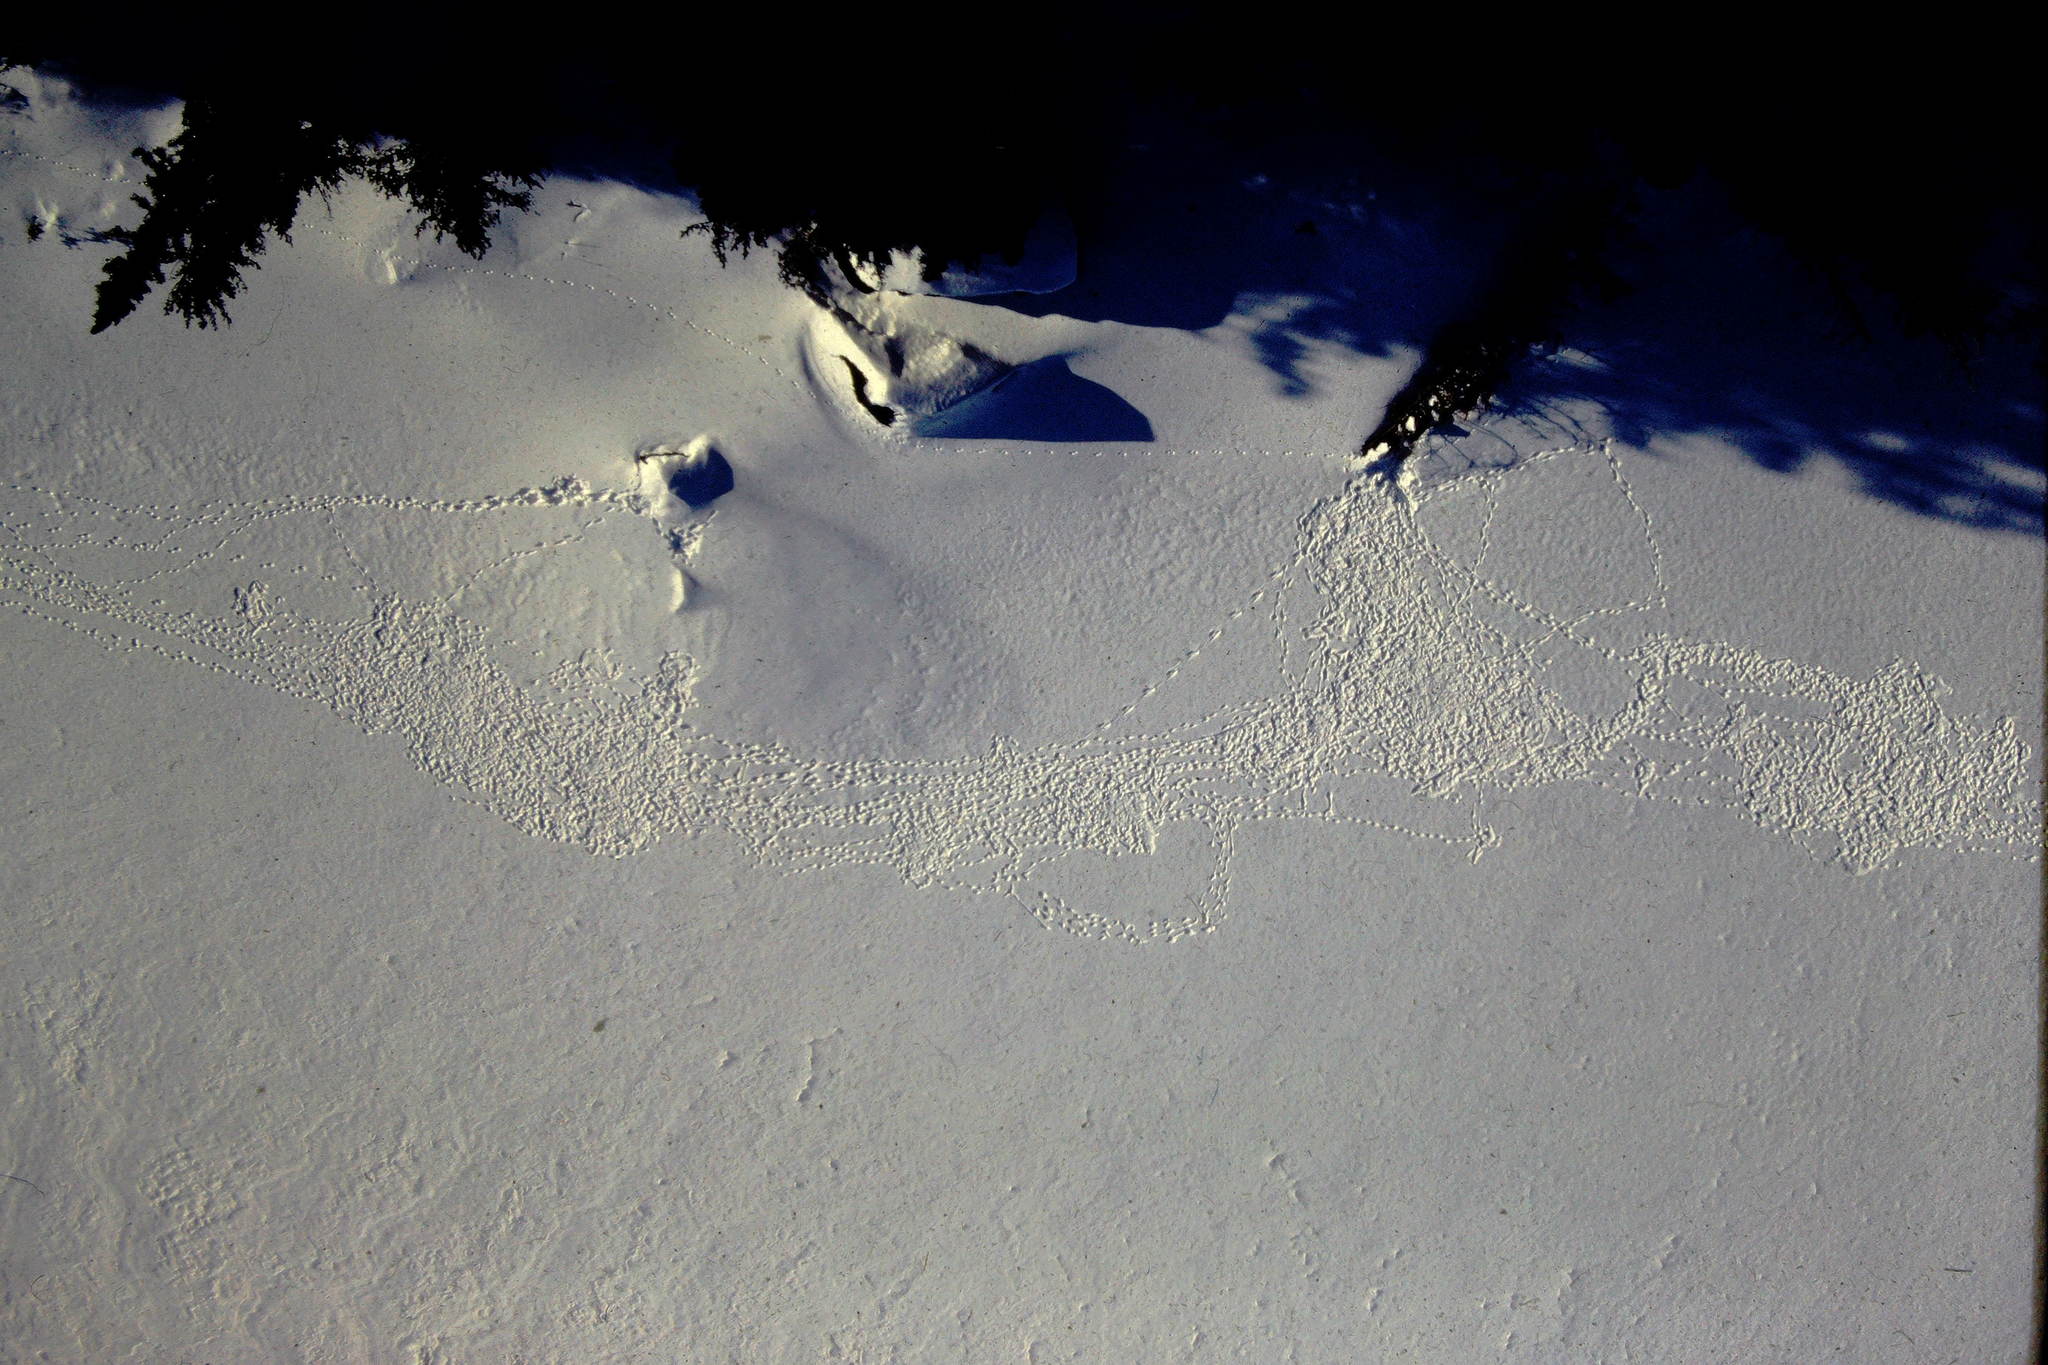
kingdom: Animalia
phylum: Chordata
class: Mammalia
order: Carnivora
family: Canidae
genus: Canis
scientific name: Canis lupus
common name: Gray wolf
